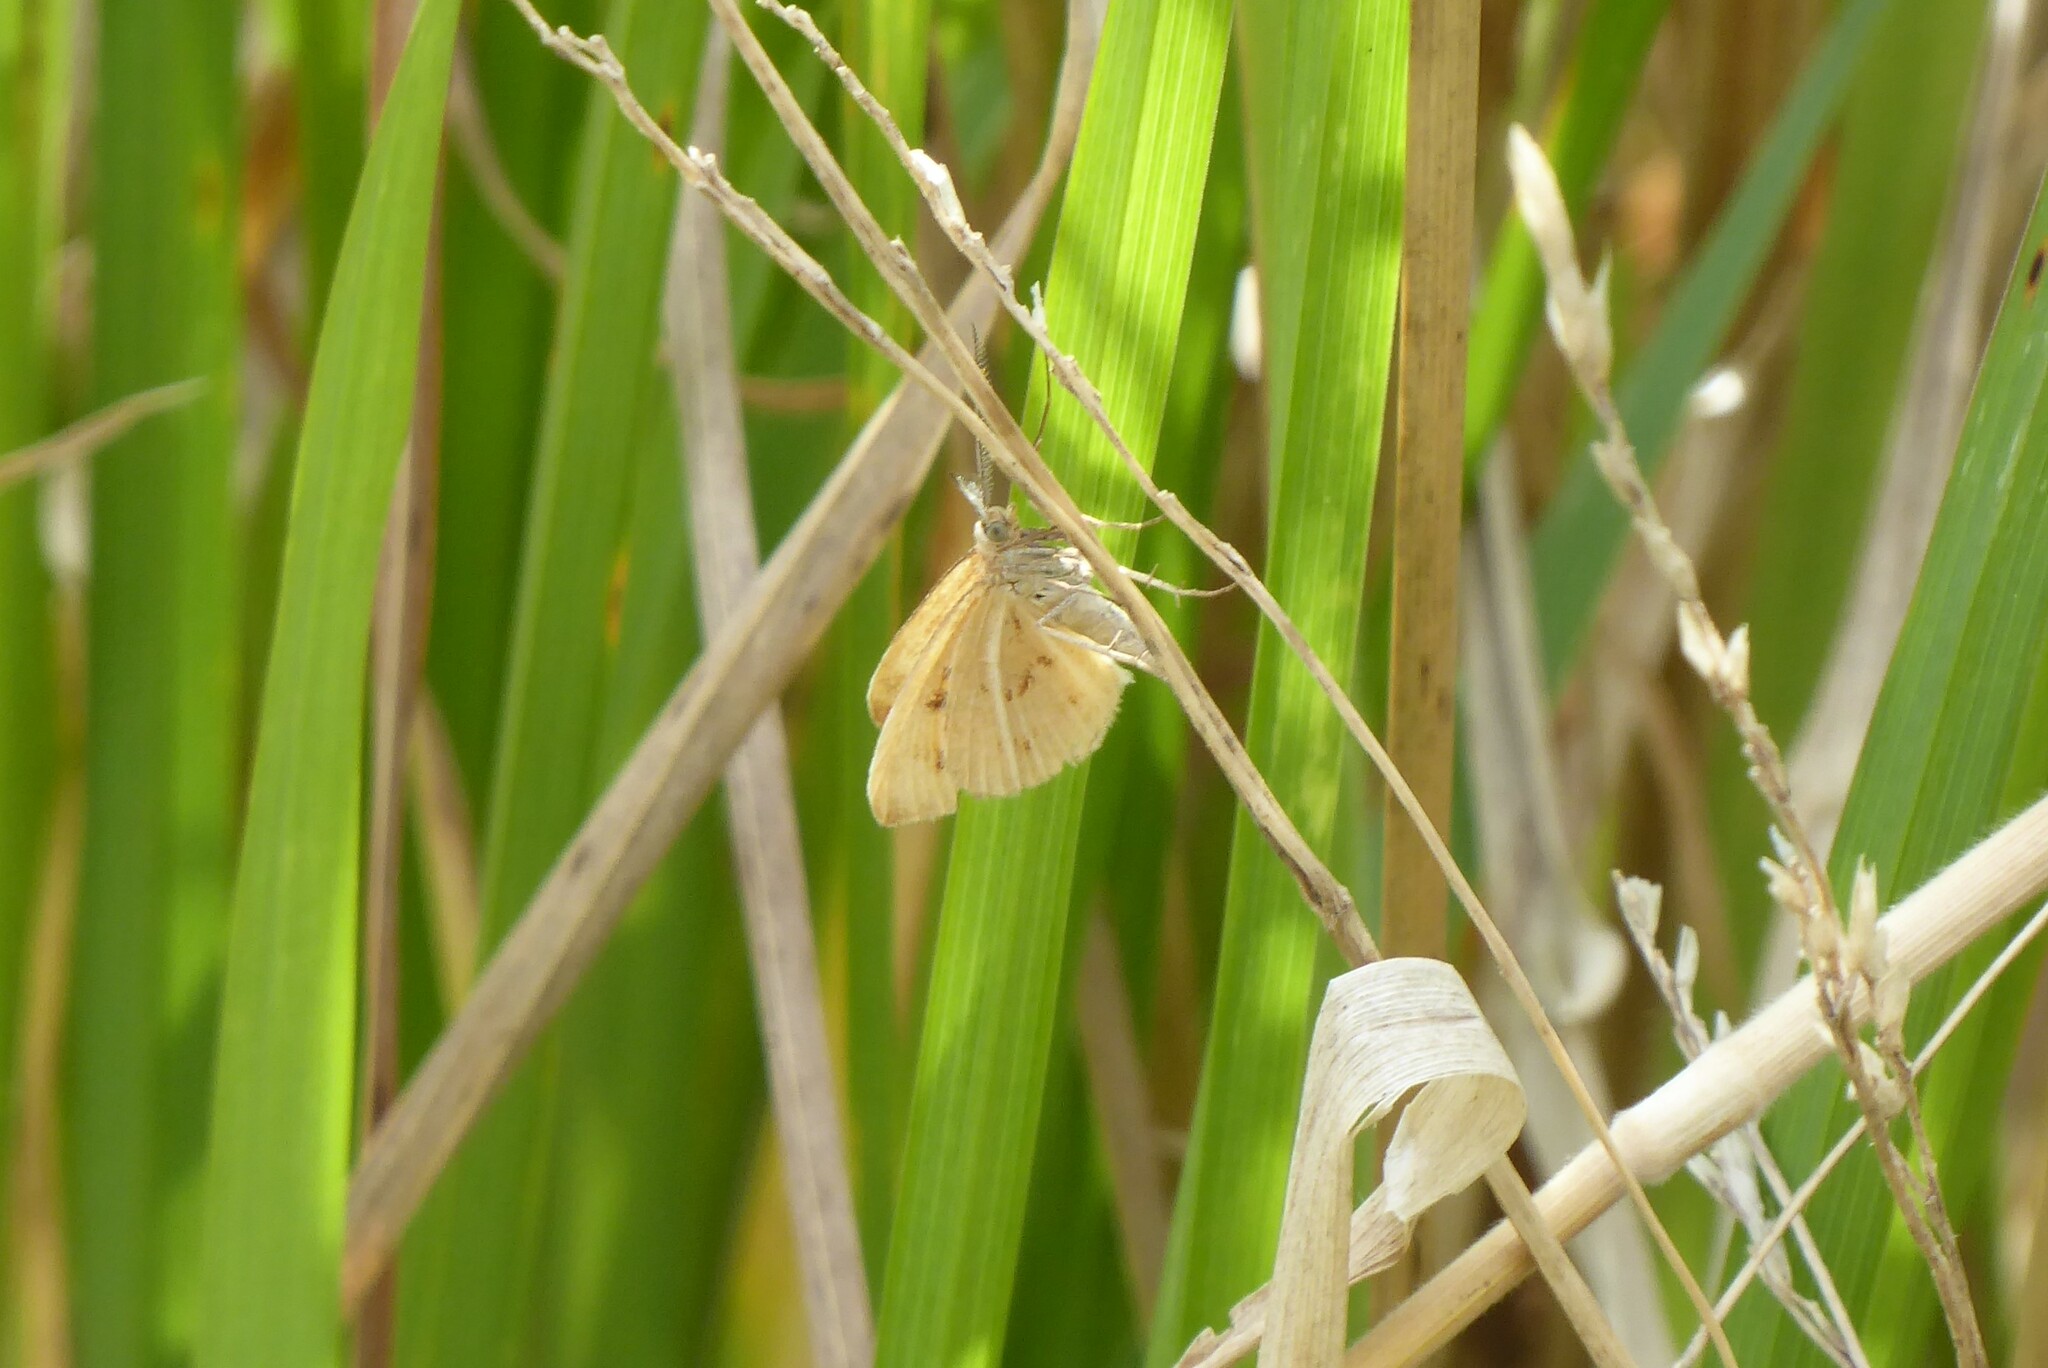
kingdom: Animalia
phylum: Arthropoda
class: Insecta
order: Lepidoptera
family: Geometridae
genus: Asaphodes
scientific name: Asaphodes abrogata
